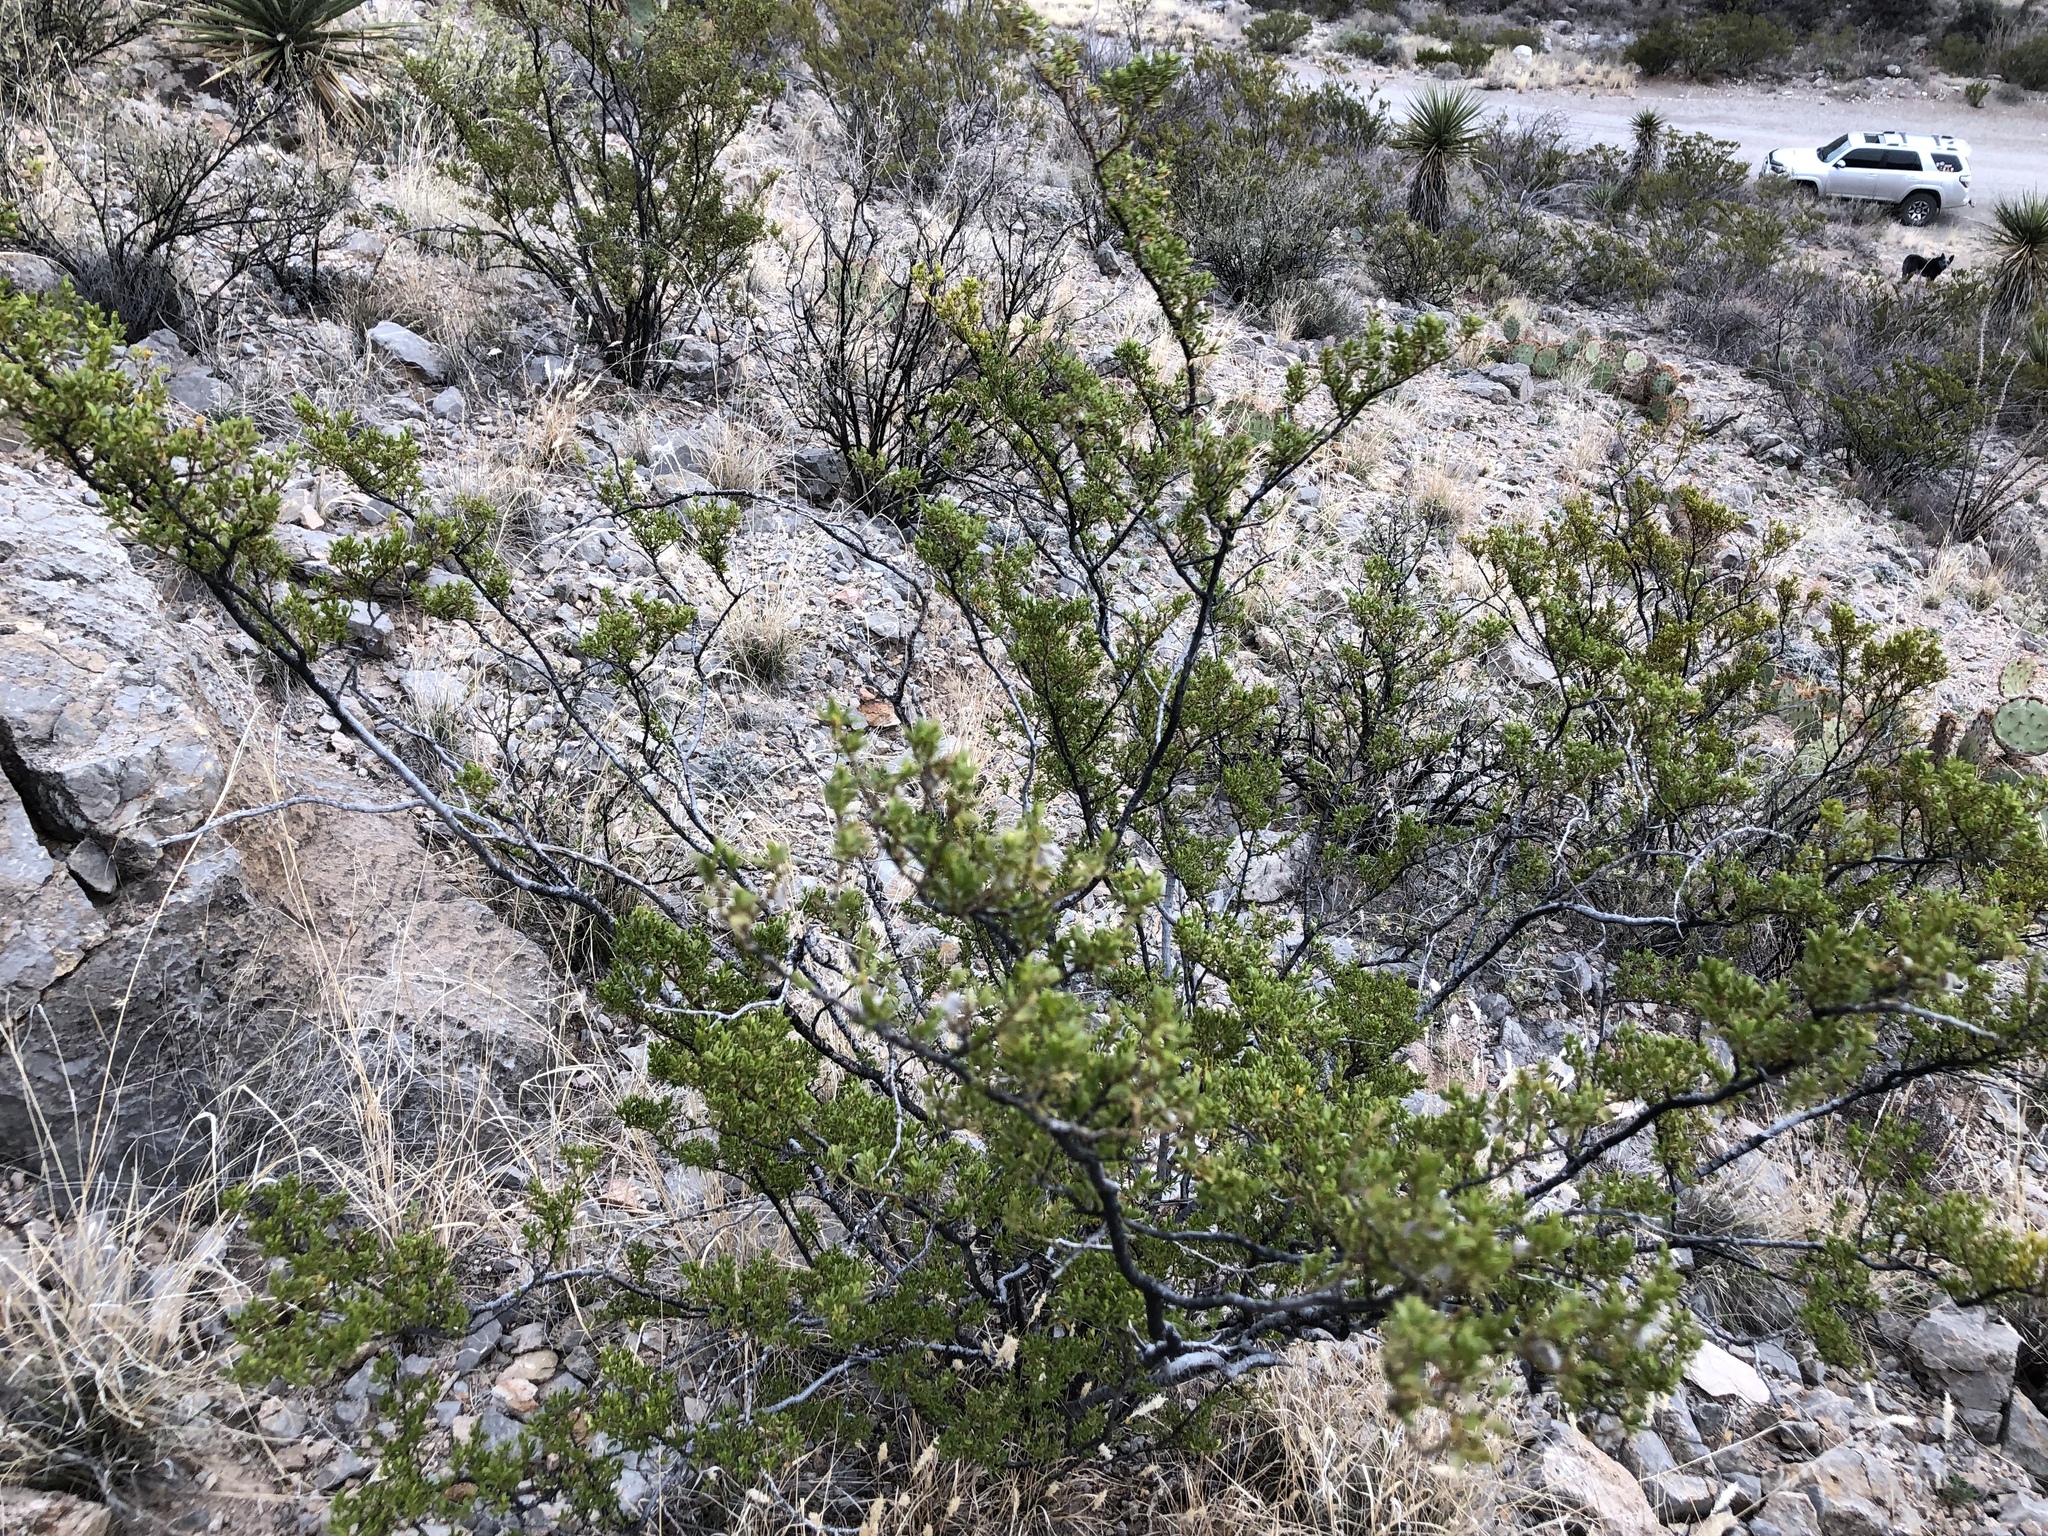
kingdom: Plantae
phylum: Tracheophyta
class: Magnoliopsida
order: Zygophyllales
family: Zygophyllaceae
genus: Larrea
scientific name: Larrea tridentata
